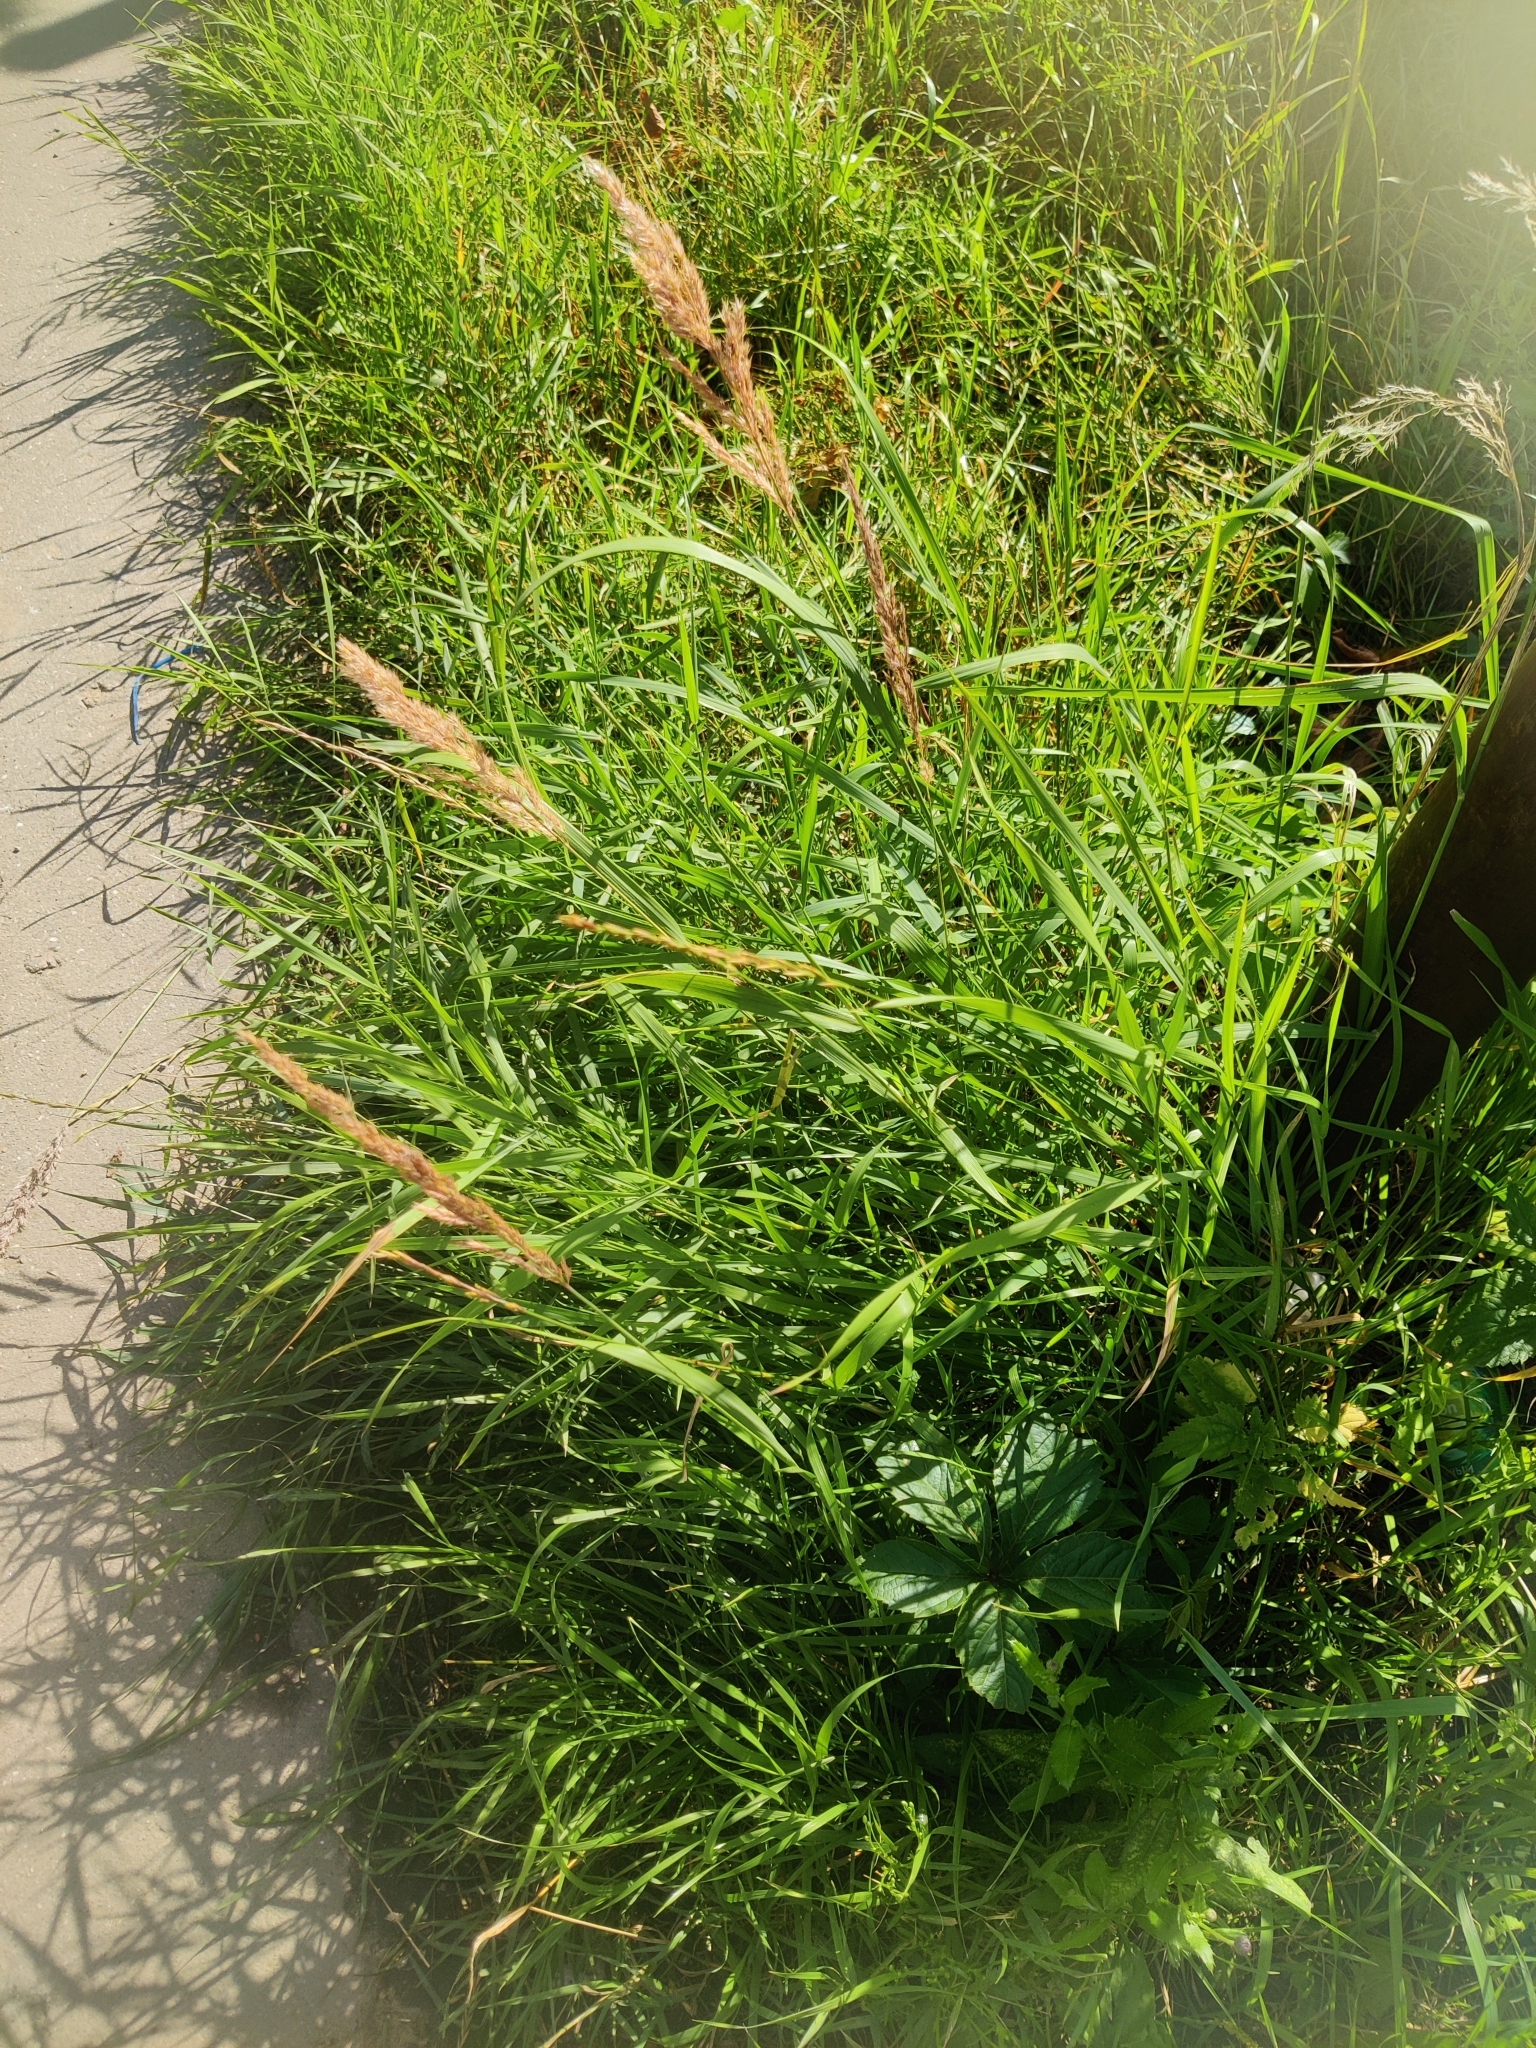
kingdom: Plantae
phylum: Tracheophyta
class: Liliopsida
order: Poales
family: Poaceae
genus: Calamagrostis
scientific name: Calamagrostis epigejos
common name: Wood small-reed
